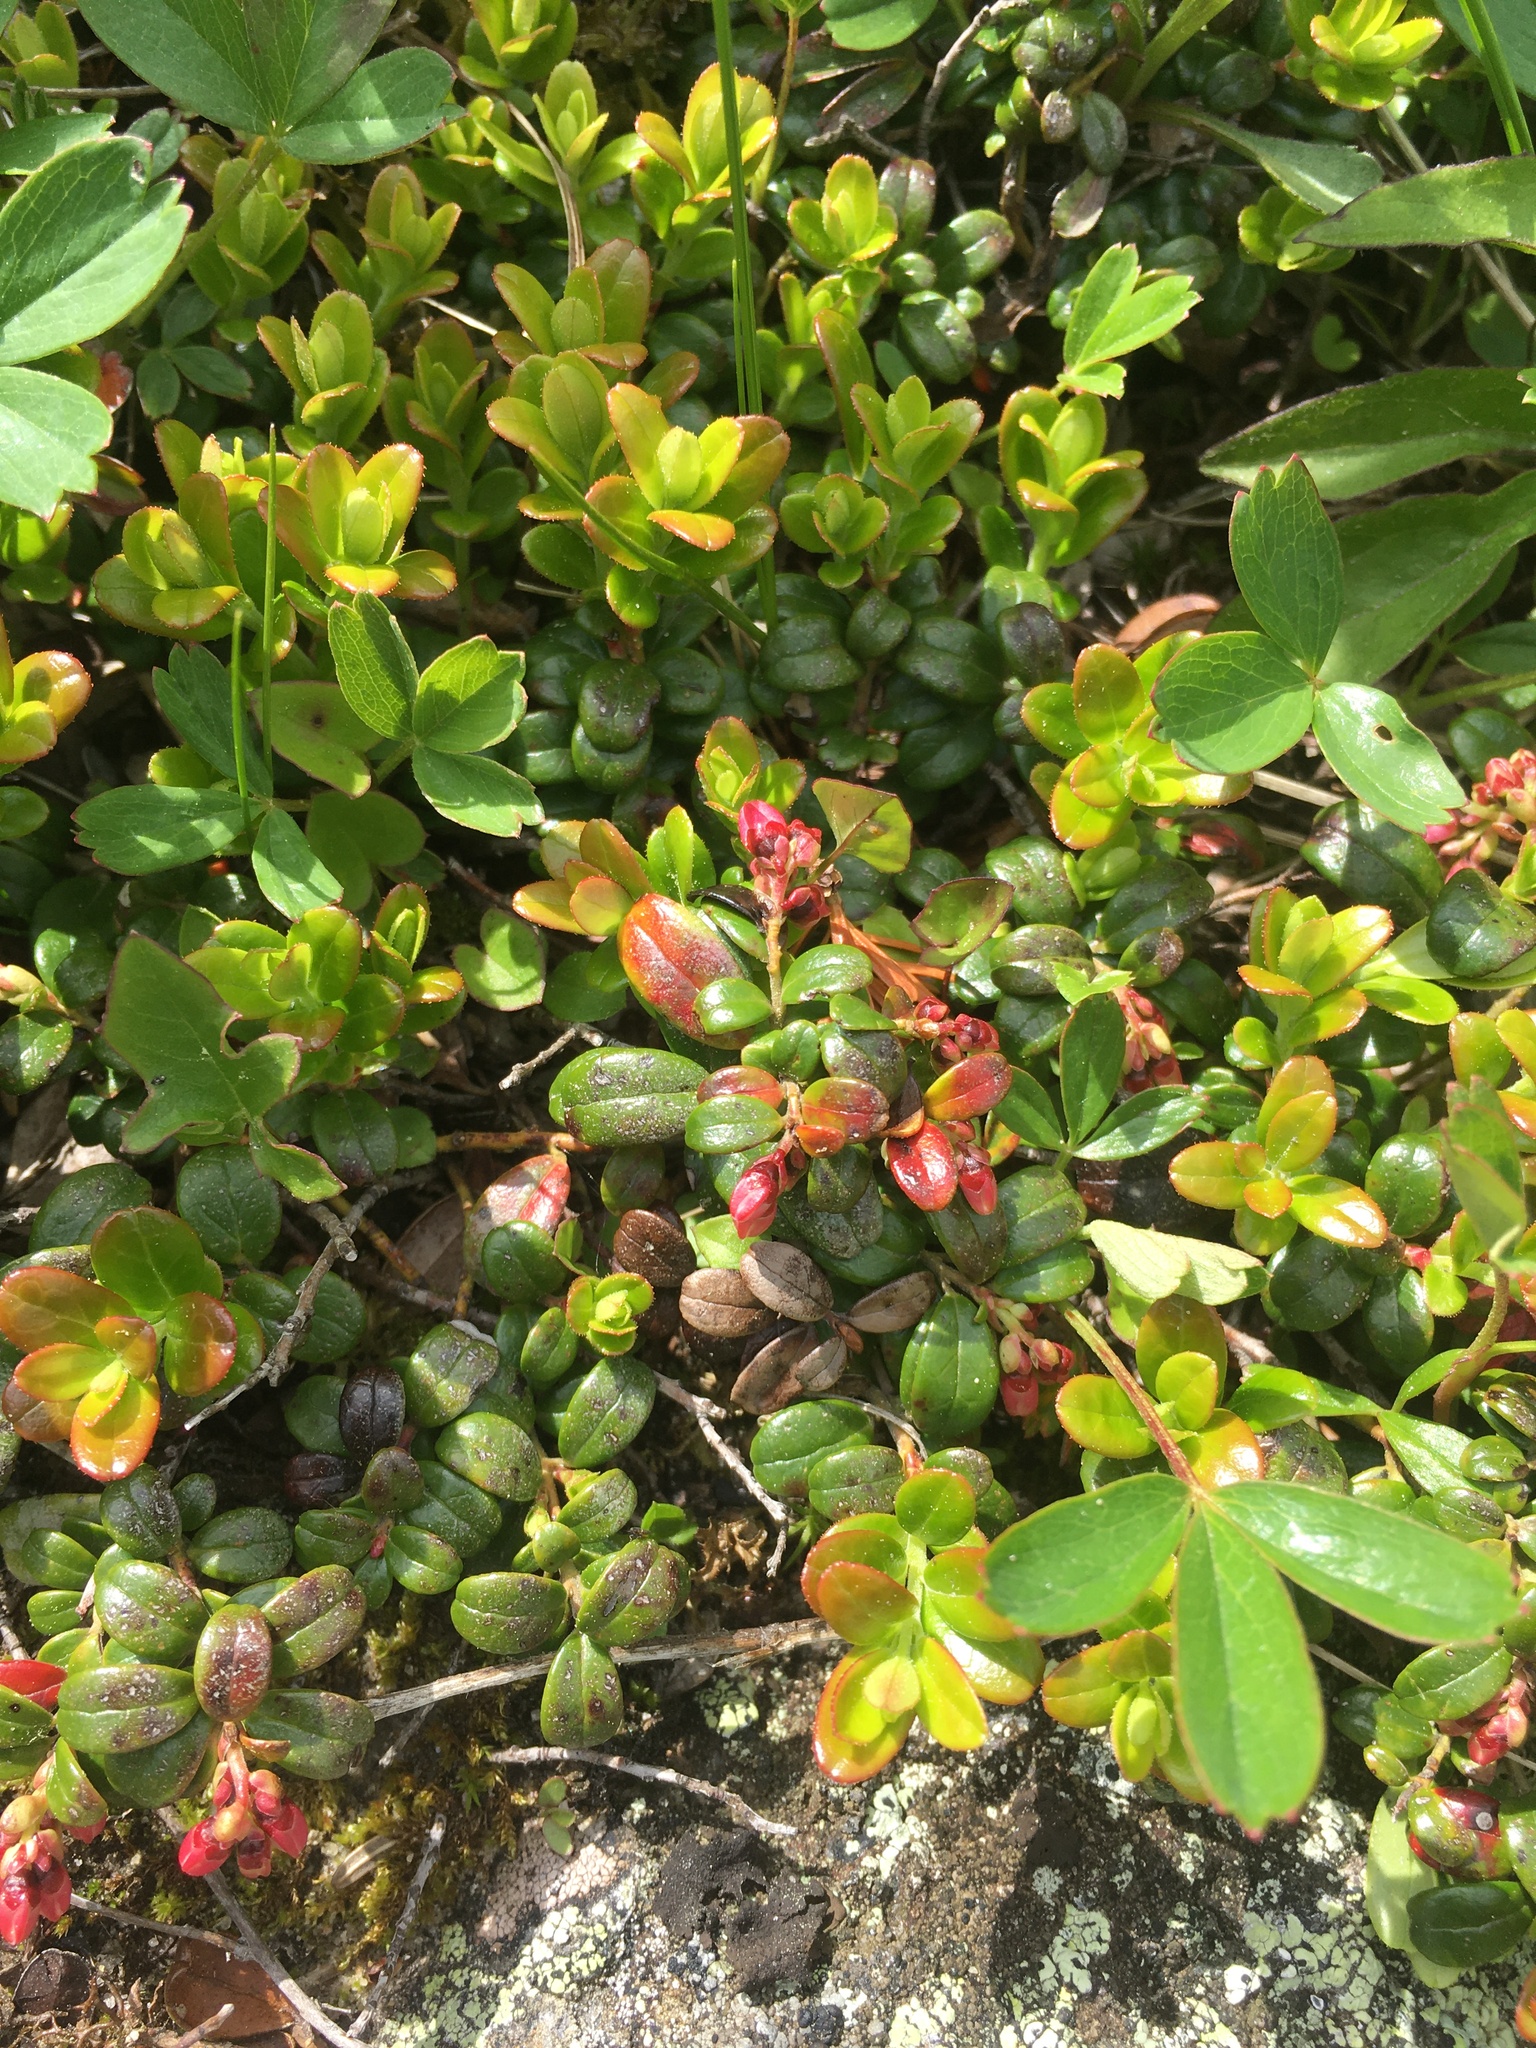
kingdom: Plantae
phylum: Tracheophyta
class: Magnoliopsida
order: Ericales
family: Ericaceae
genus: Vaccinium
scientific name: Vaccinium vitis-idaea
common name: Cowberry
